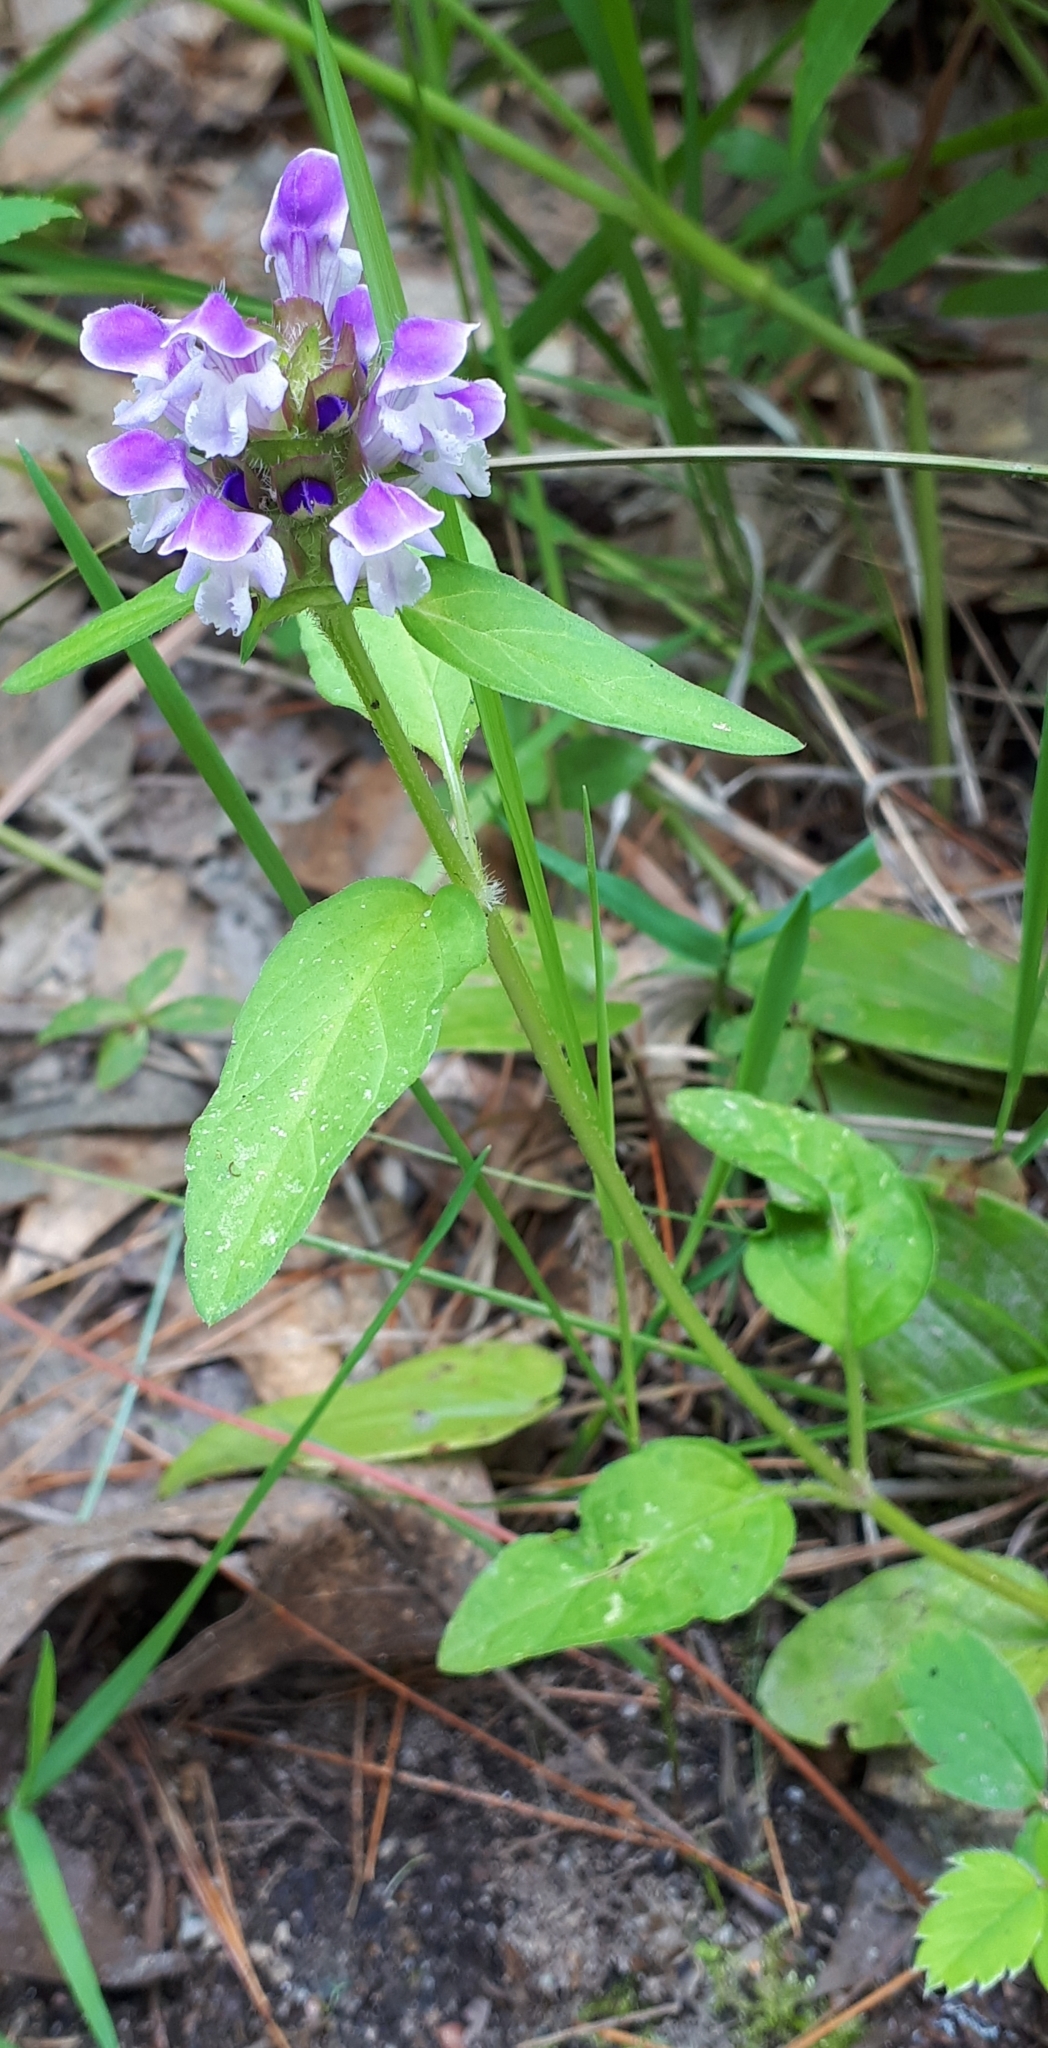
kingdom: Plantae
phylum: Tracheophyta
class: Magnoliopsida
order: Lamiales
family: Lamiaceae
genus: Prunella
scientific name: Prunella vulgaris
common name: Heal-all
